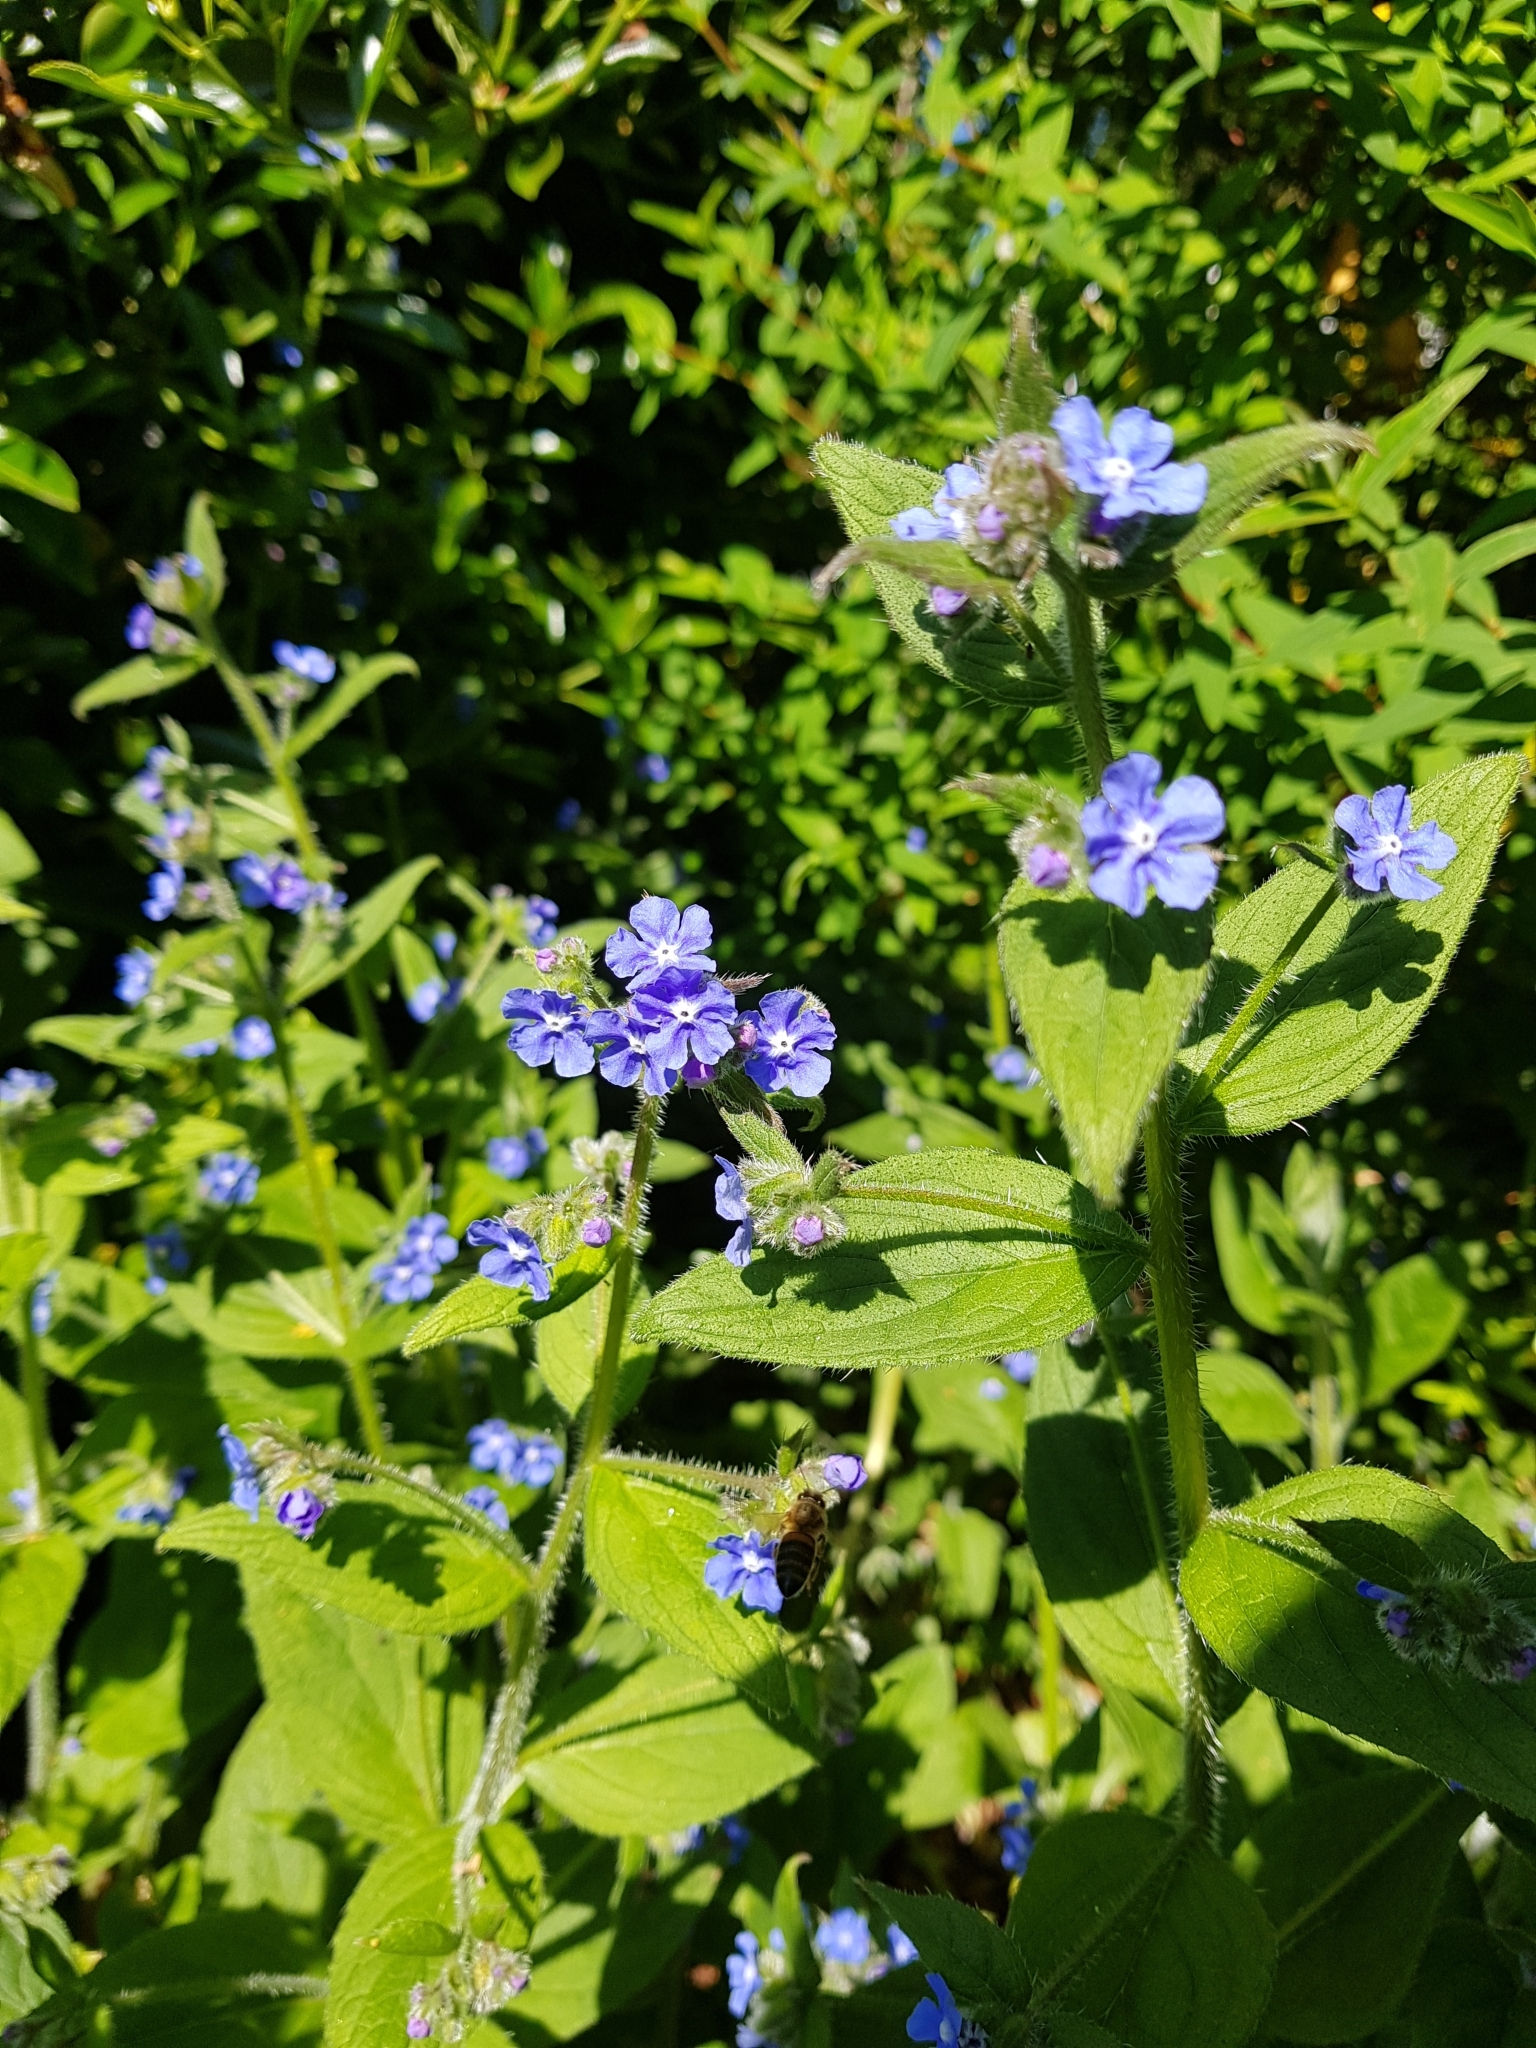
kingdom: Plantae
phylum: Tracheophyta
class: Magnoliopsida
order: Boraginales
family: Boraginaceae
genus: Pentaglottis
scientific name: Pentaglottis sempervirens
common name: Green alkanet
